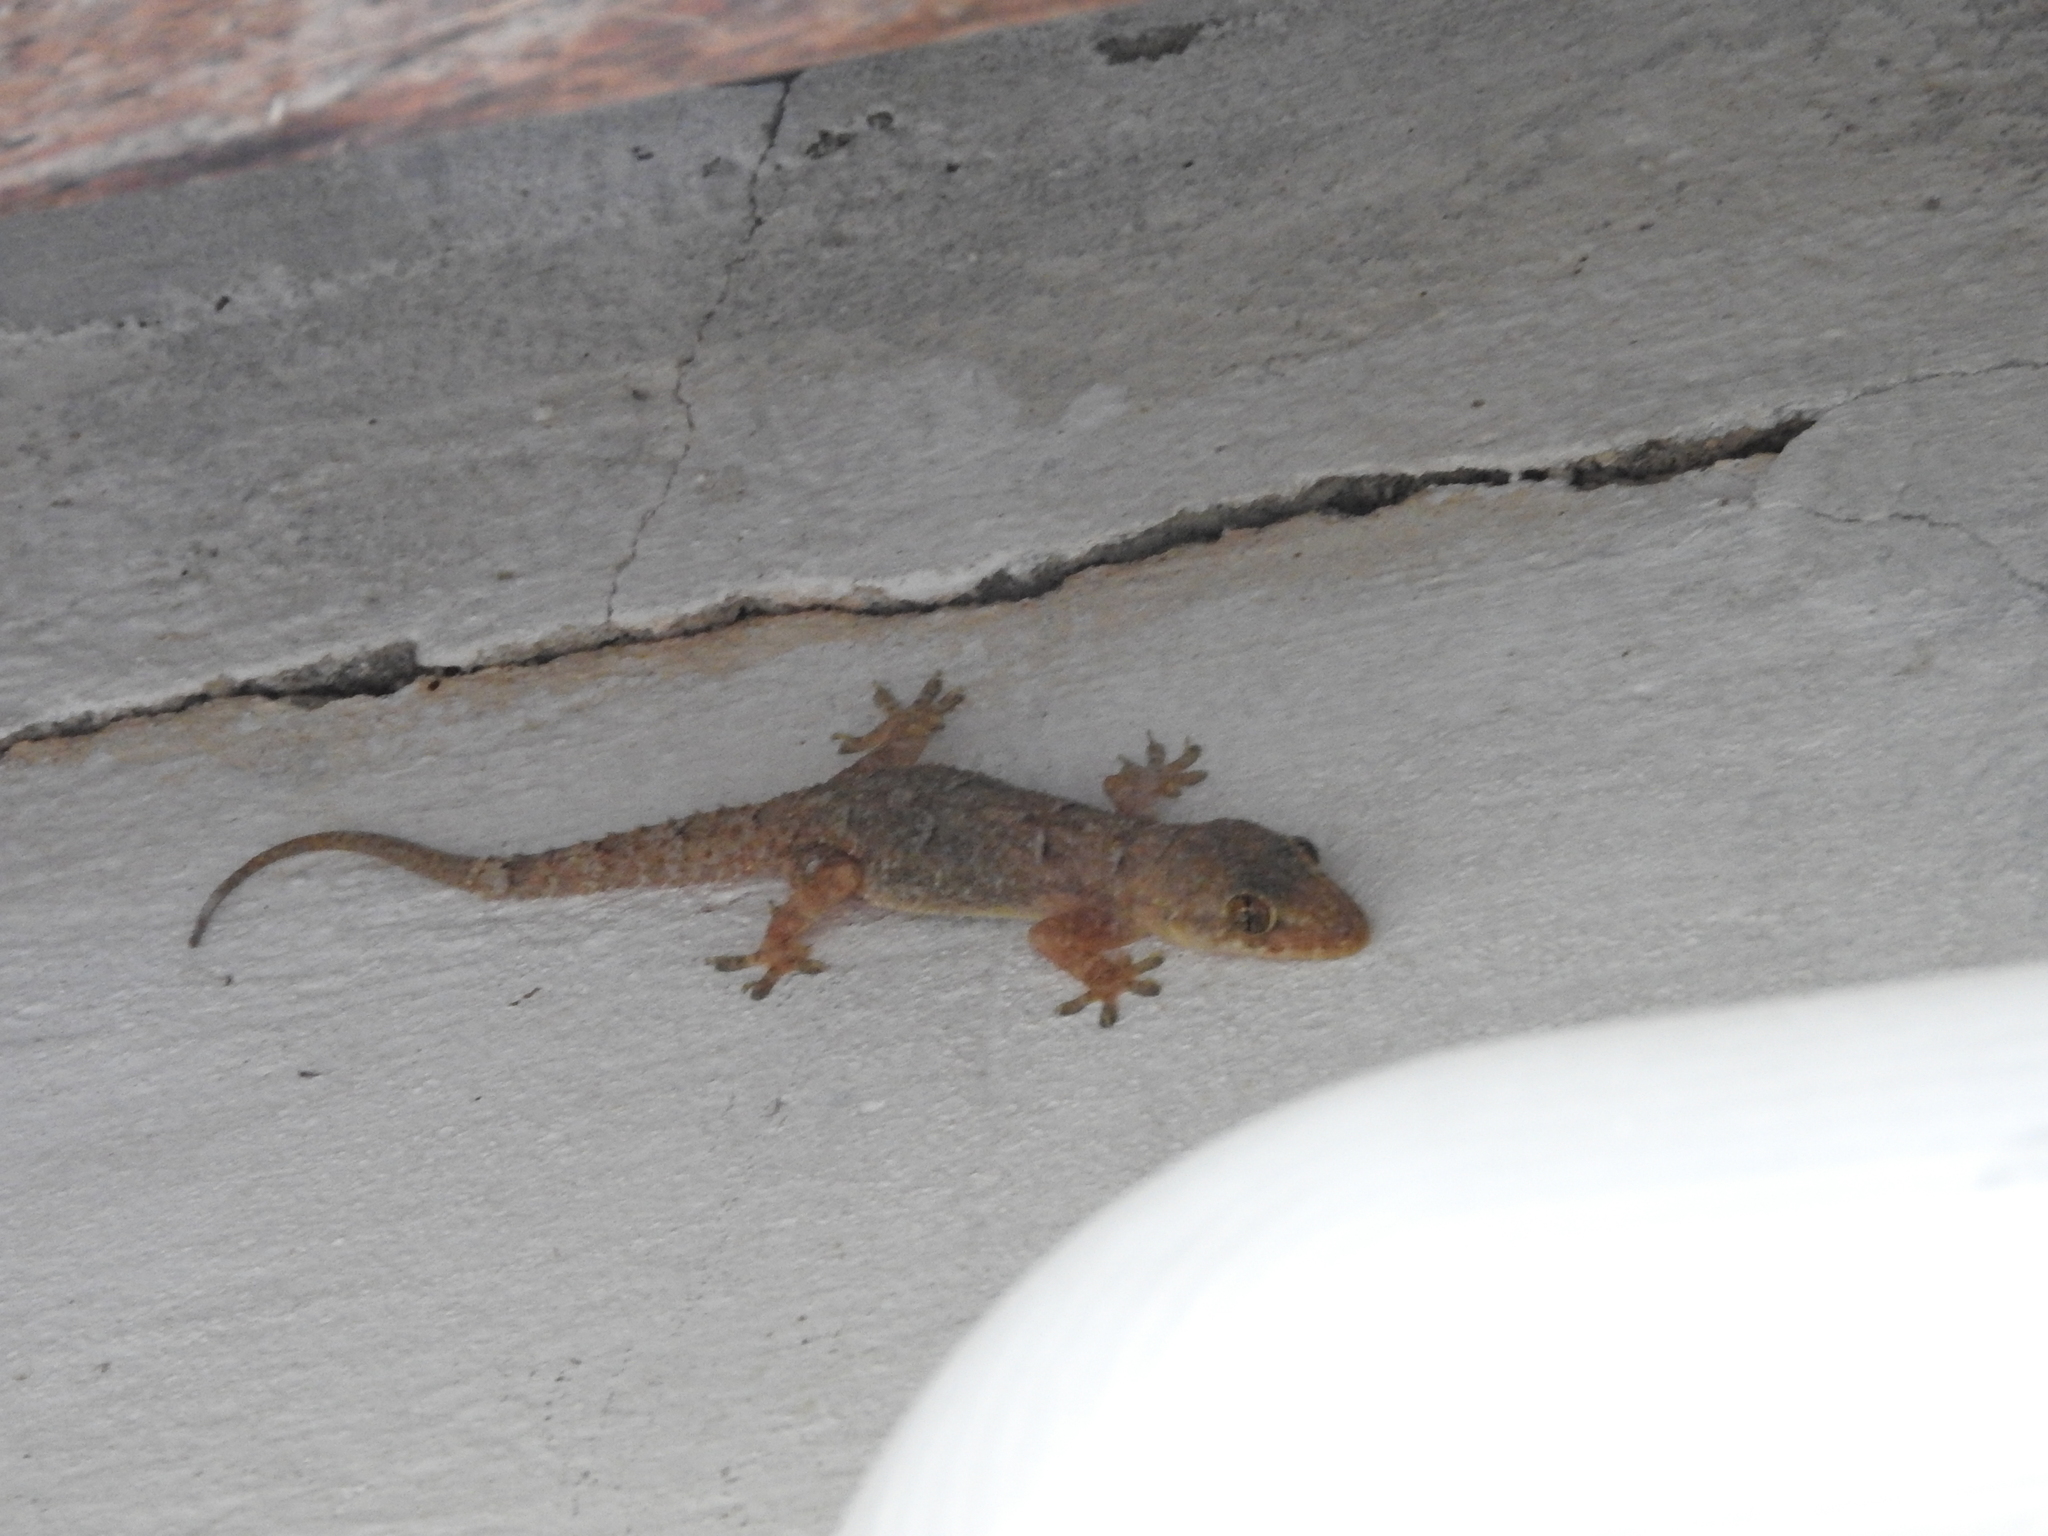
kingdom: Animalia
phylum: Chordata
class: Squamata
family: Gekkonidae
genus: Hemidactylus
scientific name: Hemidactylus mabouia
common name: House gecko
